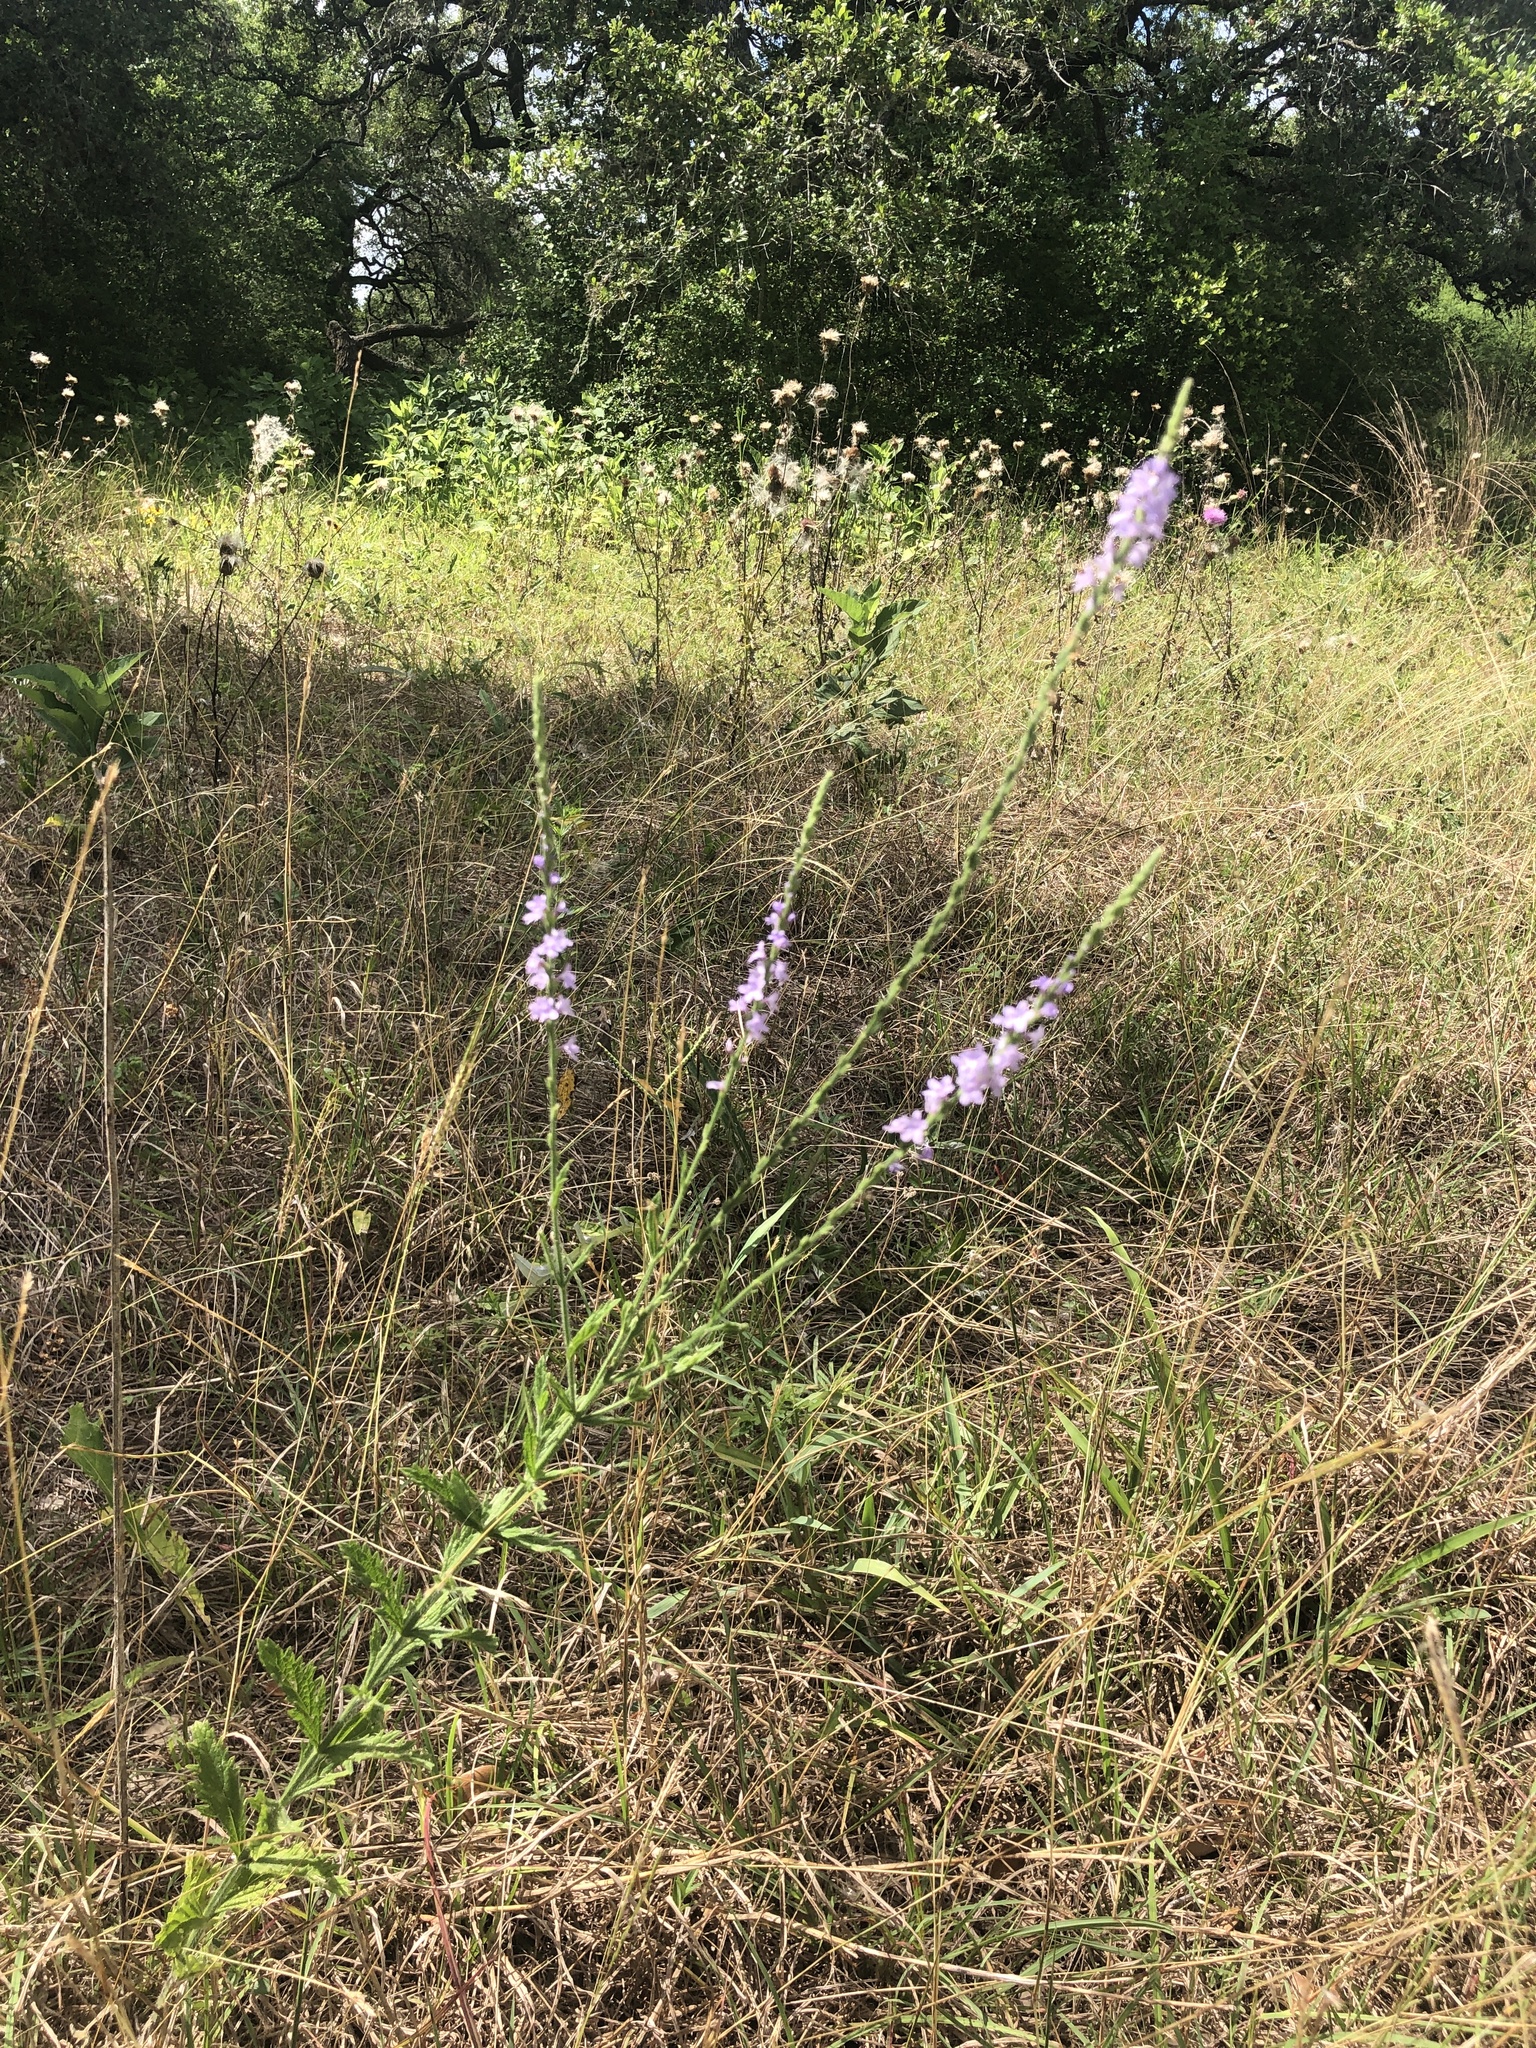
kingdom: Plantae
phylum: Tracheophyta
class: Magnoliopsida
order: Lamiales
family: Verbenaceae
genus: Verbena
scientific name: Verbena halei
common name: Texas vervain
